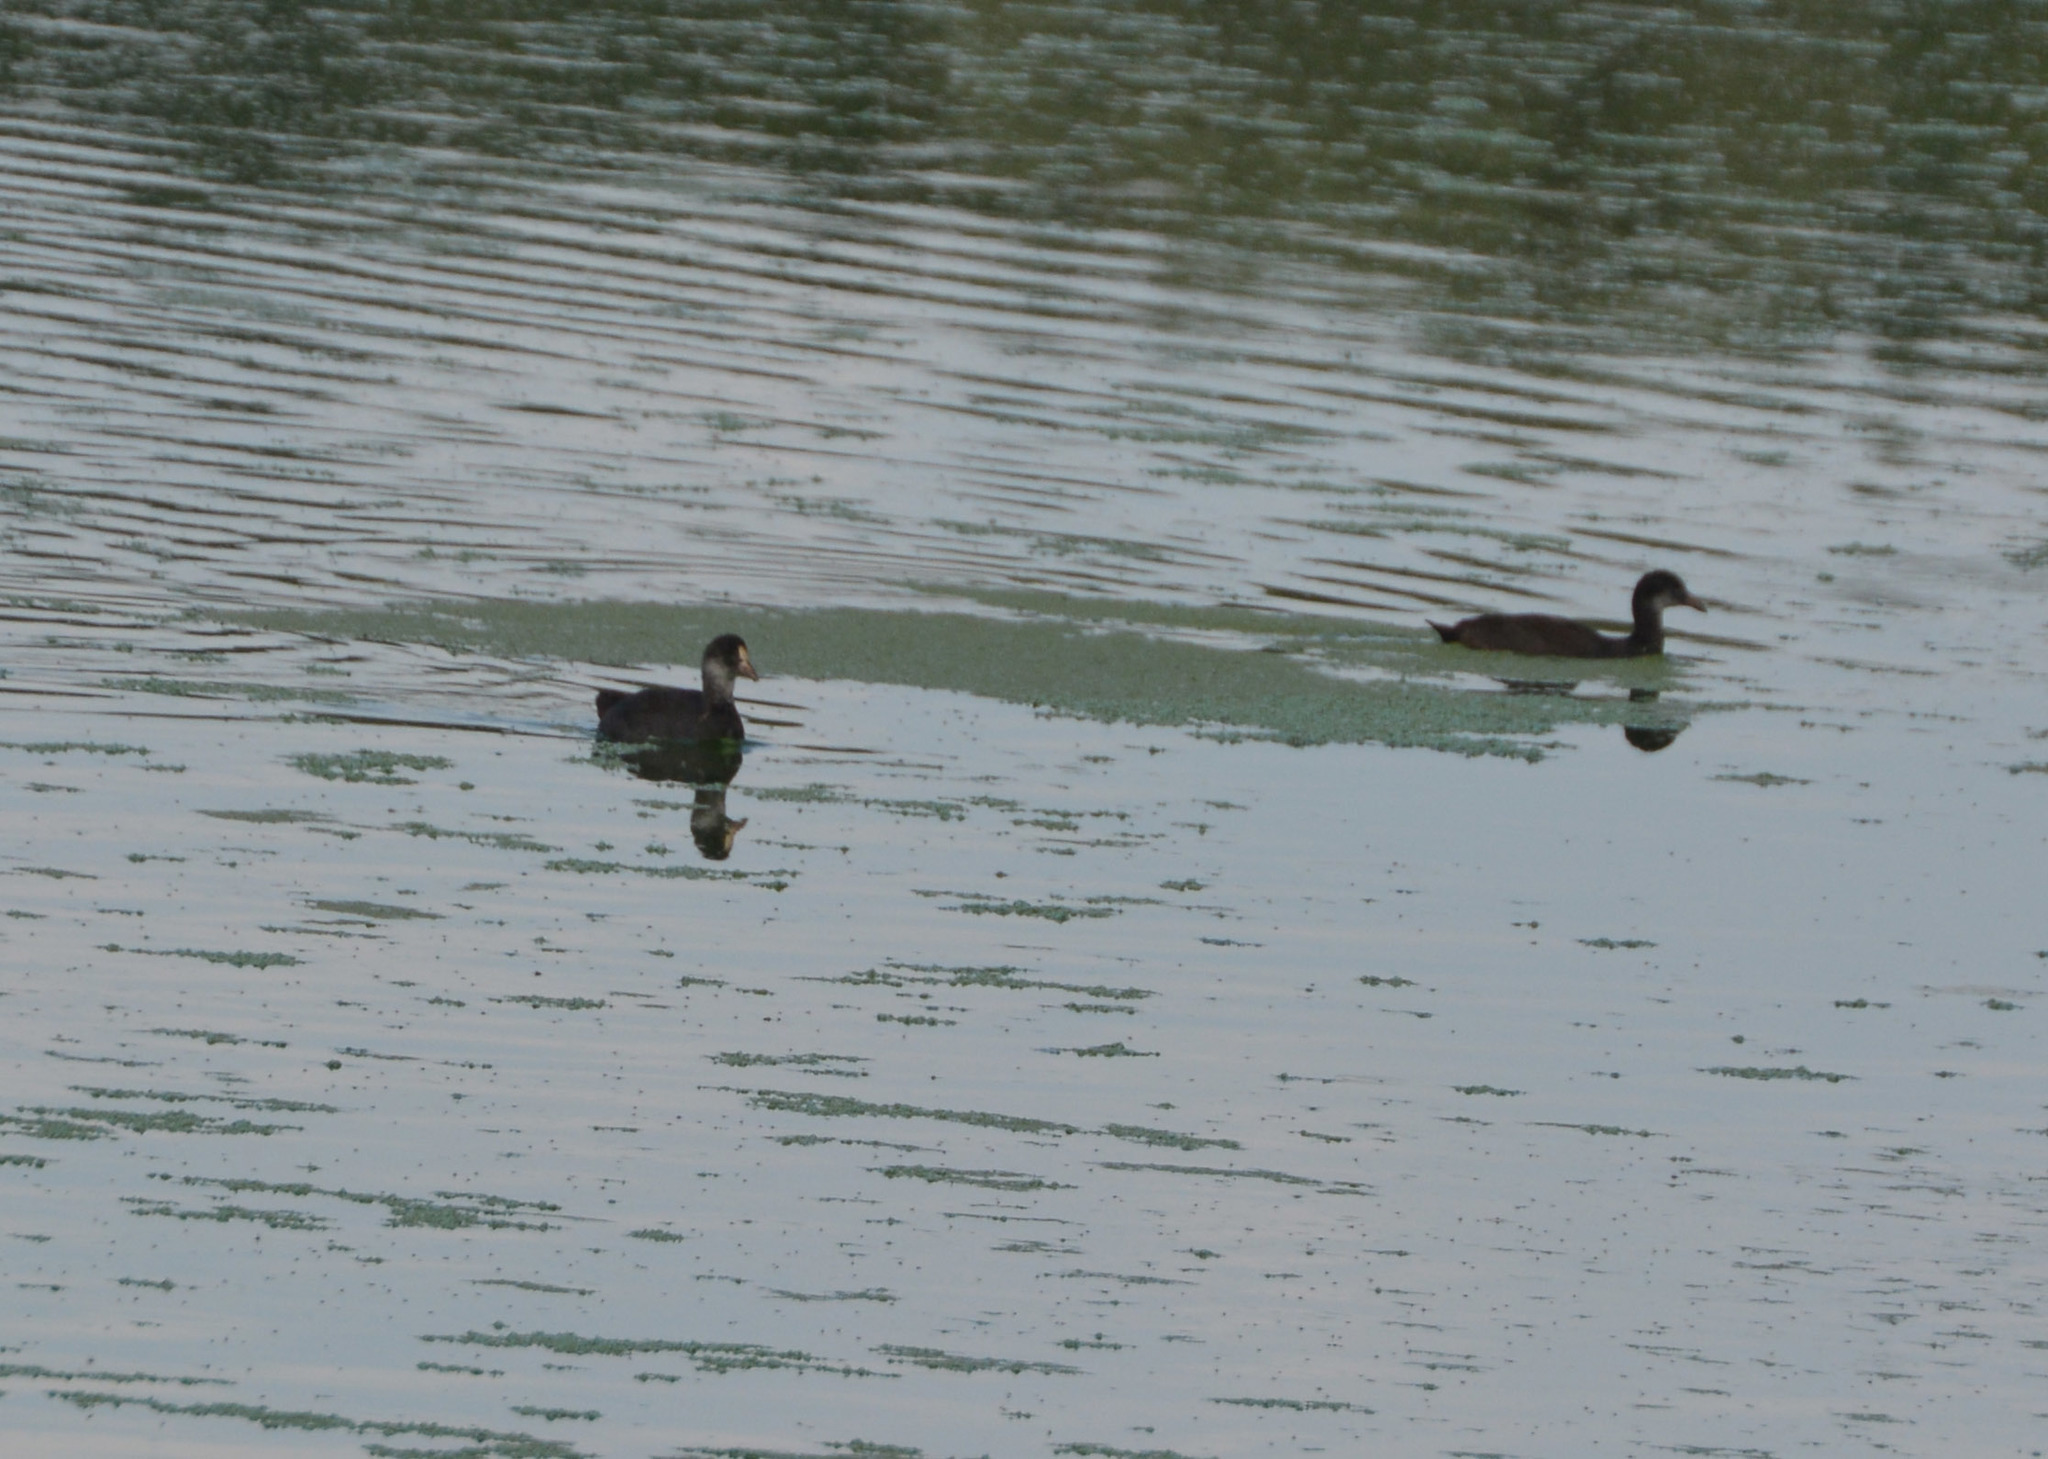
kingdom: Animalia
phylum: Chordata
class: Aves
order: Gruiformes
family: Rallidae
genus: Fulica
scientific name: Fulica atra
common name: Eurasian coot
